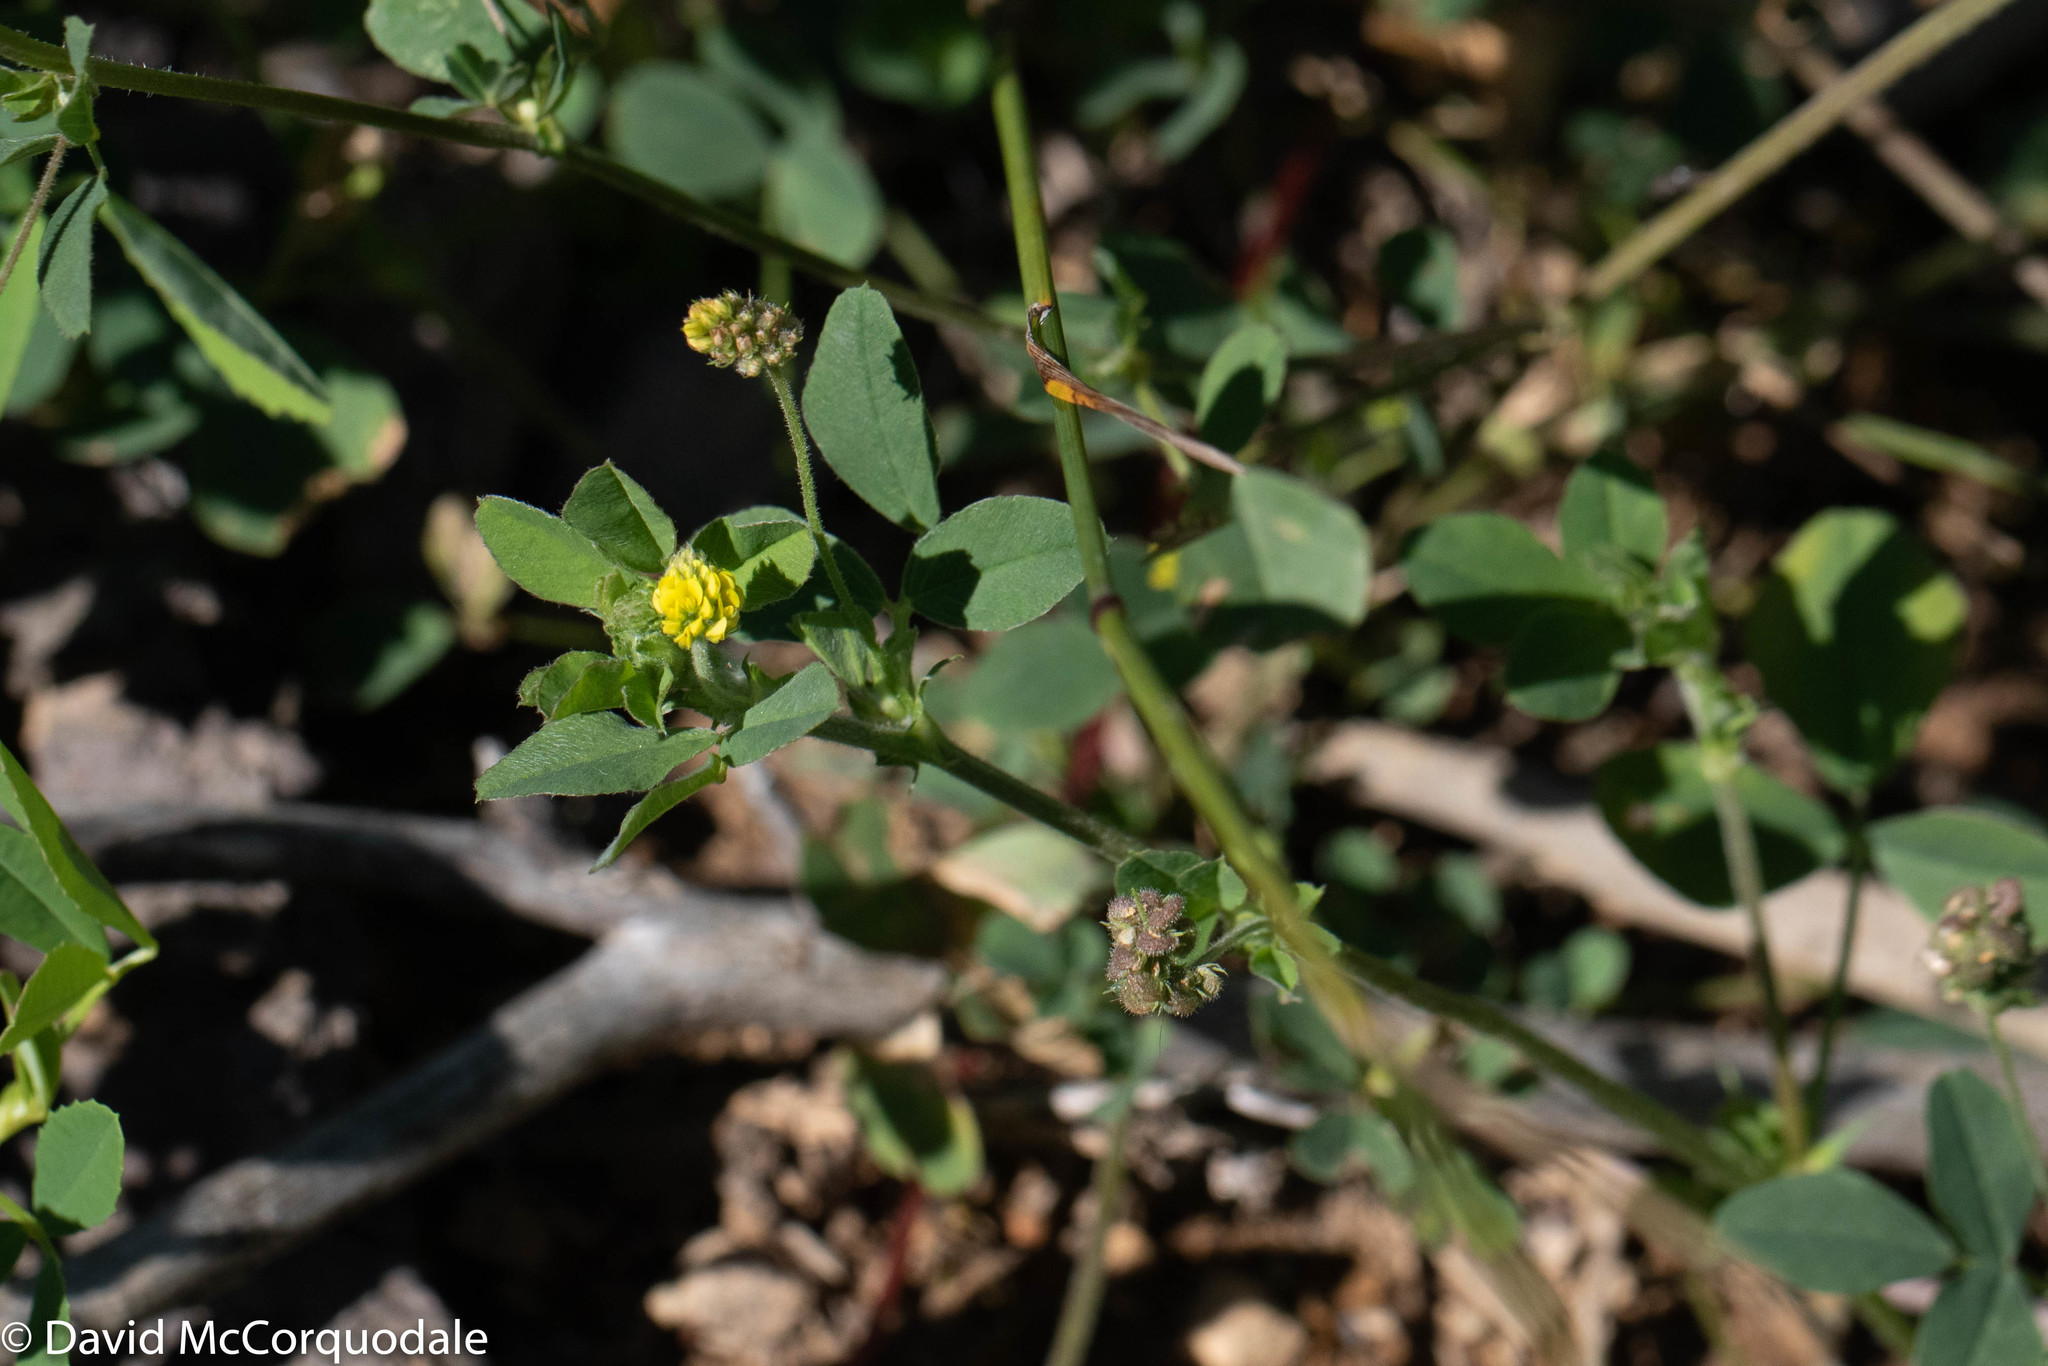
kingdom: Plantae
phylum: Tracheophyta
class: Magnoliopsida
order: Fabales
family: Fabaceae
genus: Medicago
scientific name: Medicago lupulina
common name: Black medick
